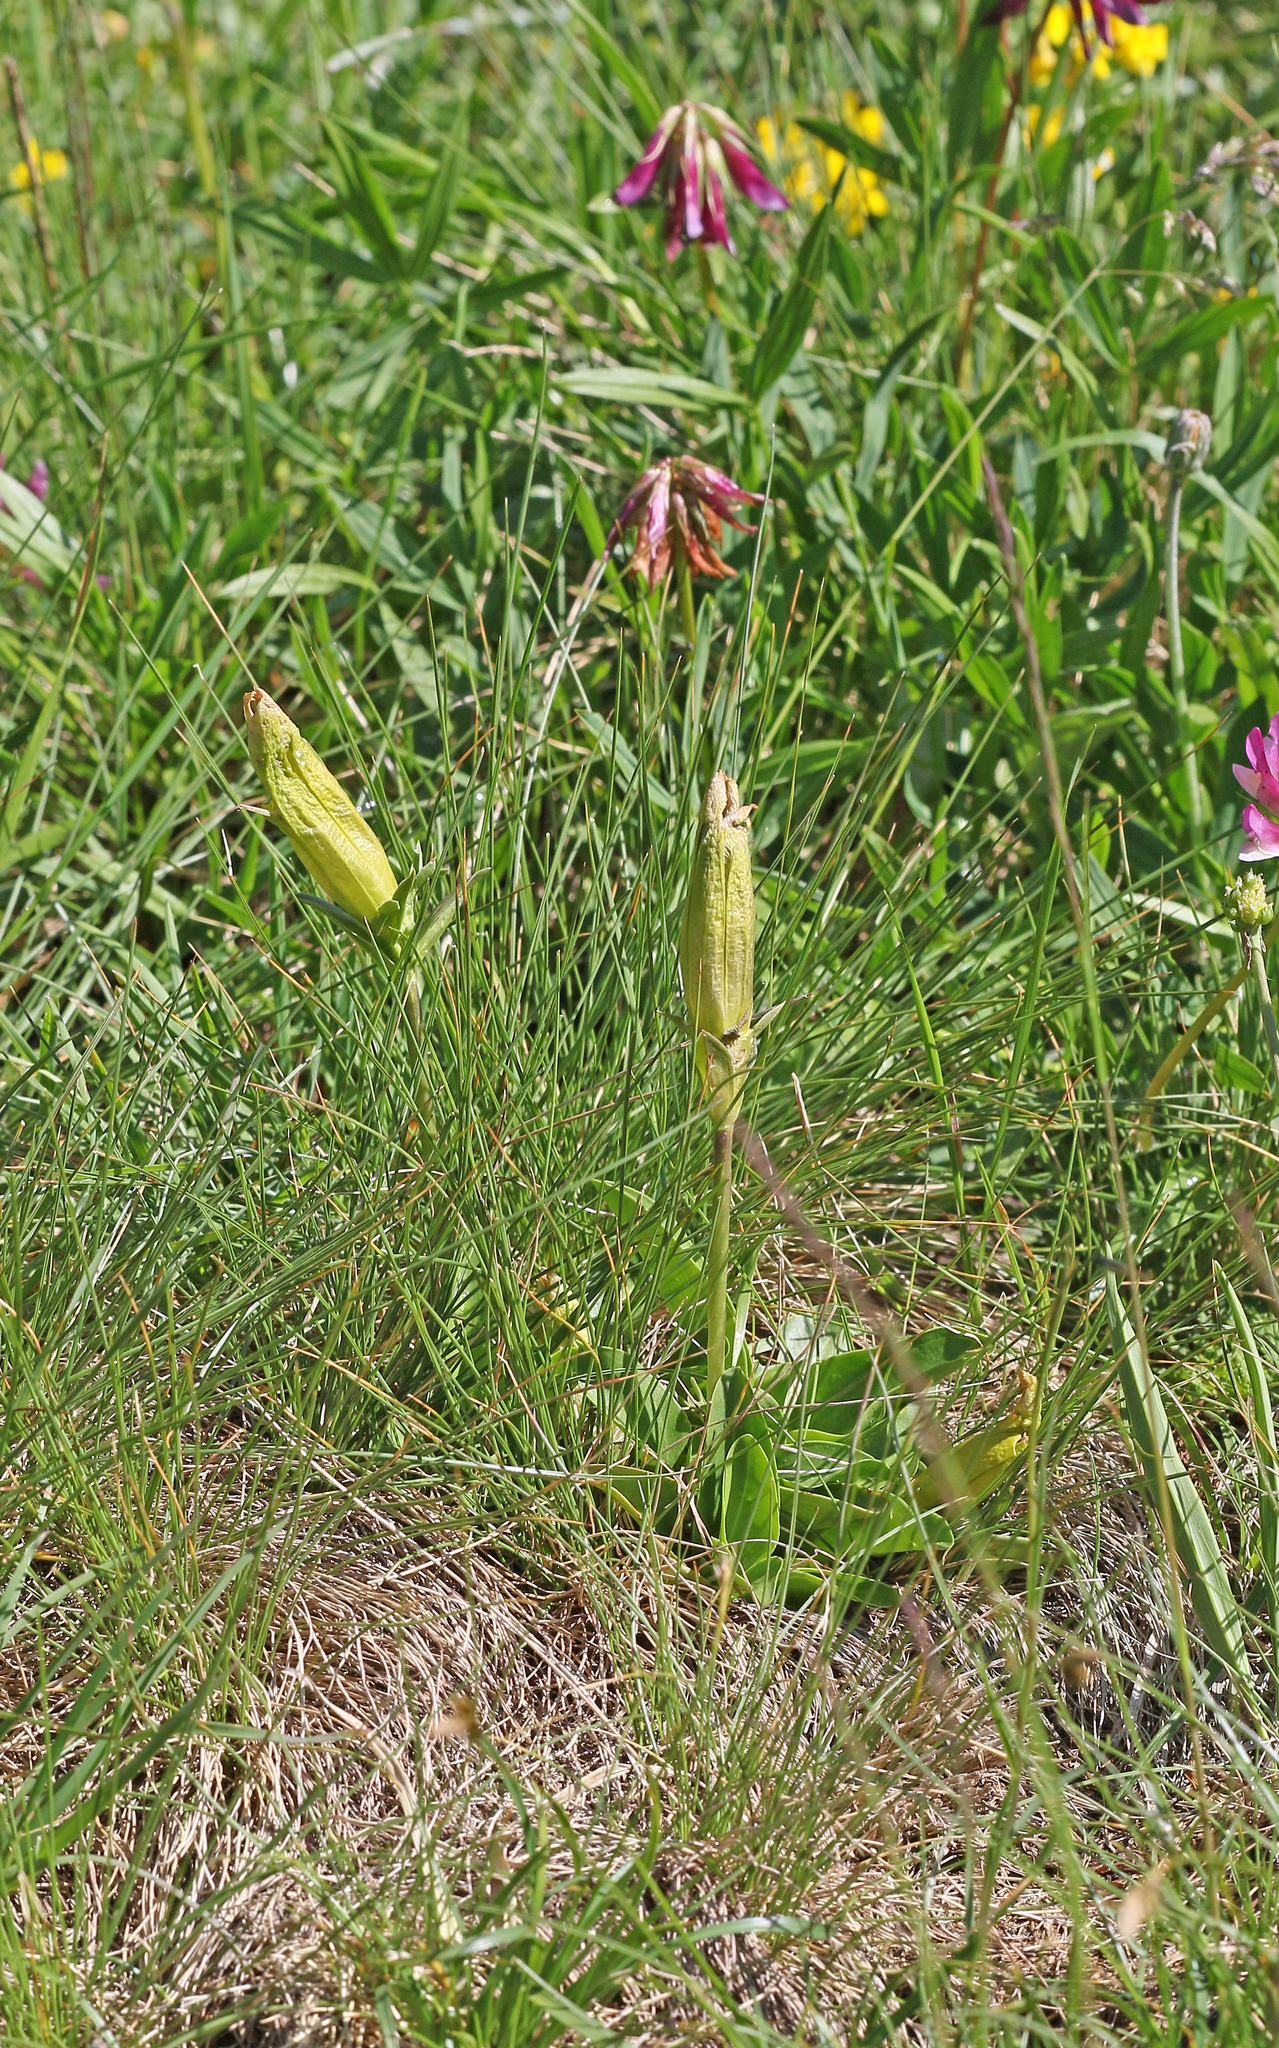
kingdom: Plantae
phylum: Tracheophyta
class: Magnoliopsida
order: Gentianales
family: Gentianaceae
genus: Gentiana
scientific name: Gentiana acaulis
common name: Trumpet gentian
